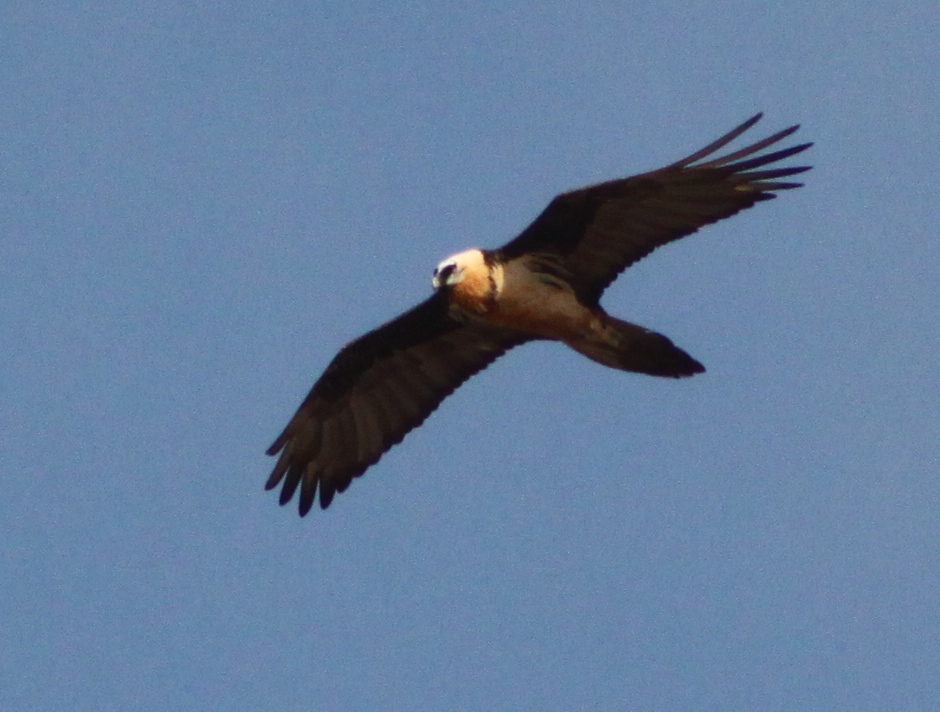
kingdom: Animalia
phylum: Chordata
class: Aves
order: Accipitriformes
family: Accipitridae
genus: Gypaetus
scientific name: Gypaetus barbatus
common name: Bearded vulture
